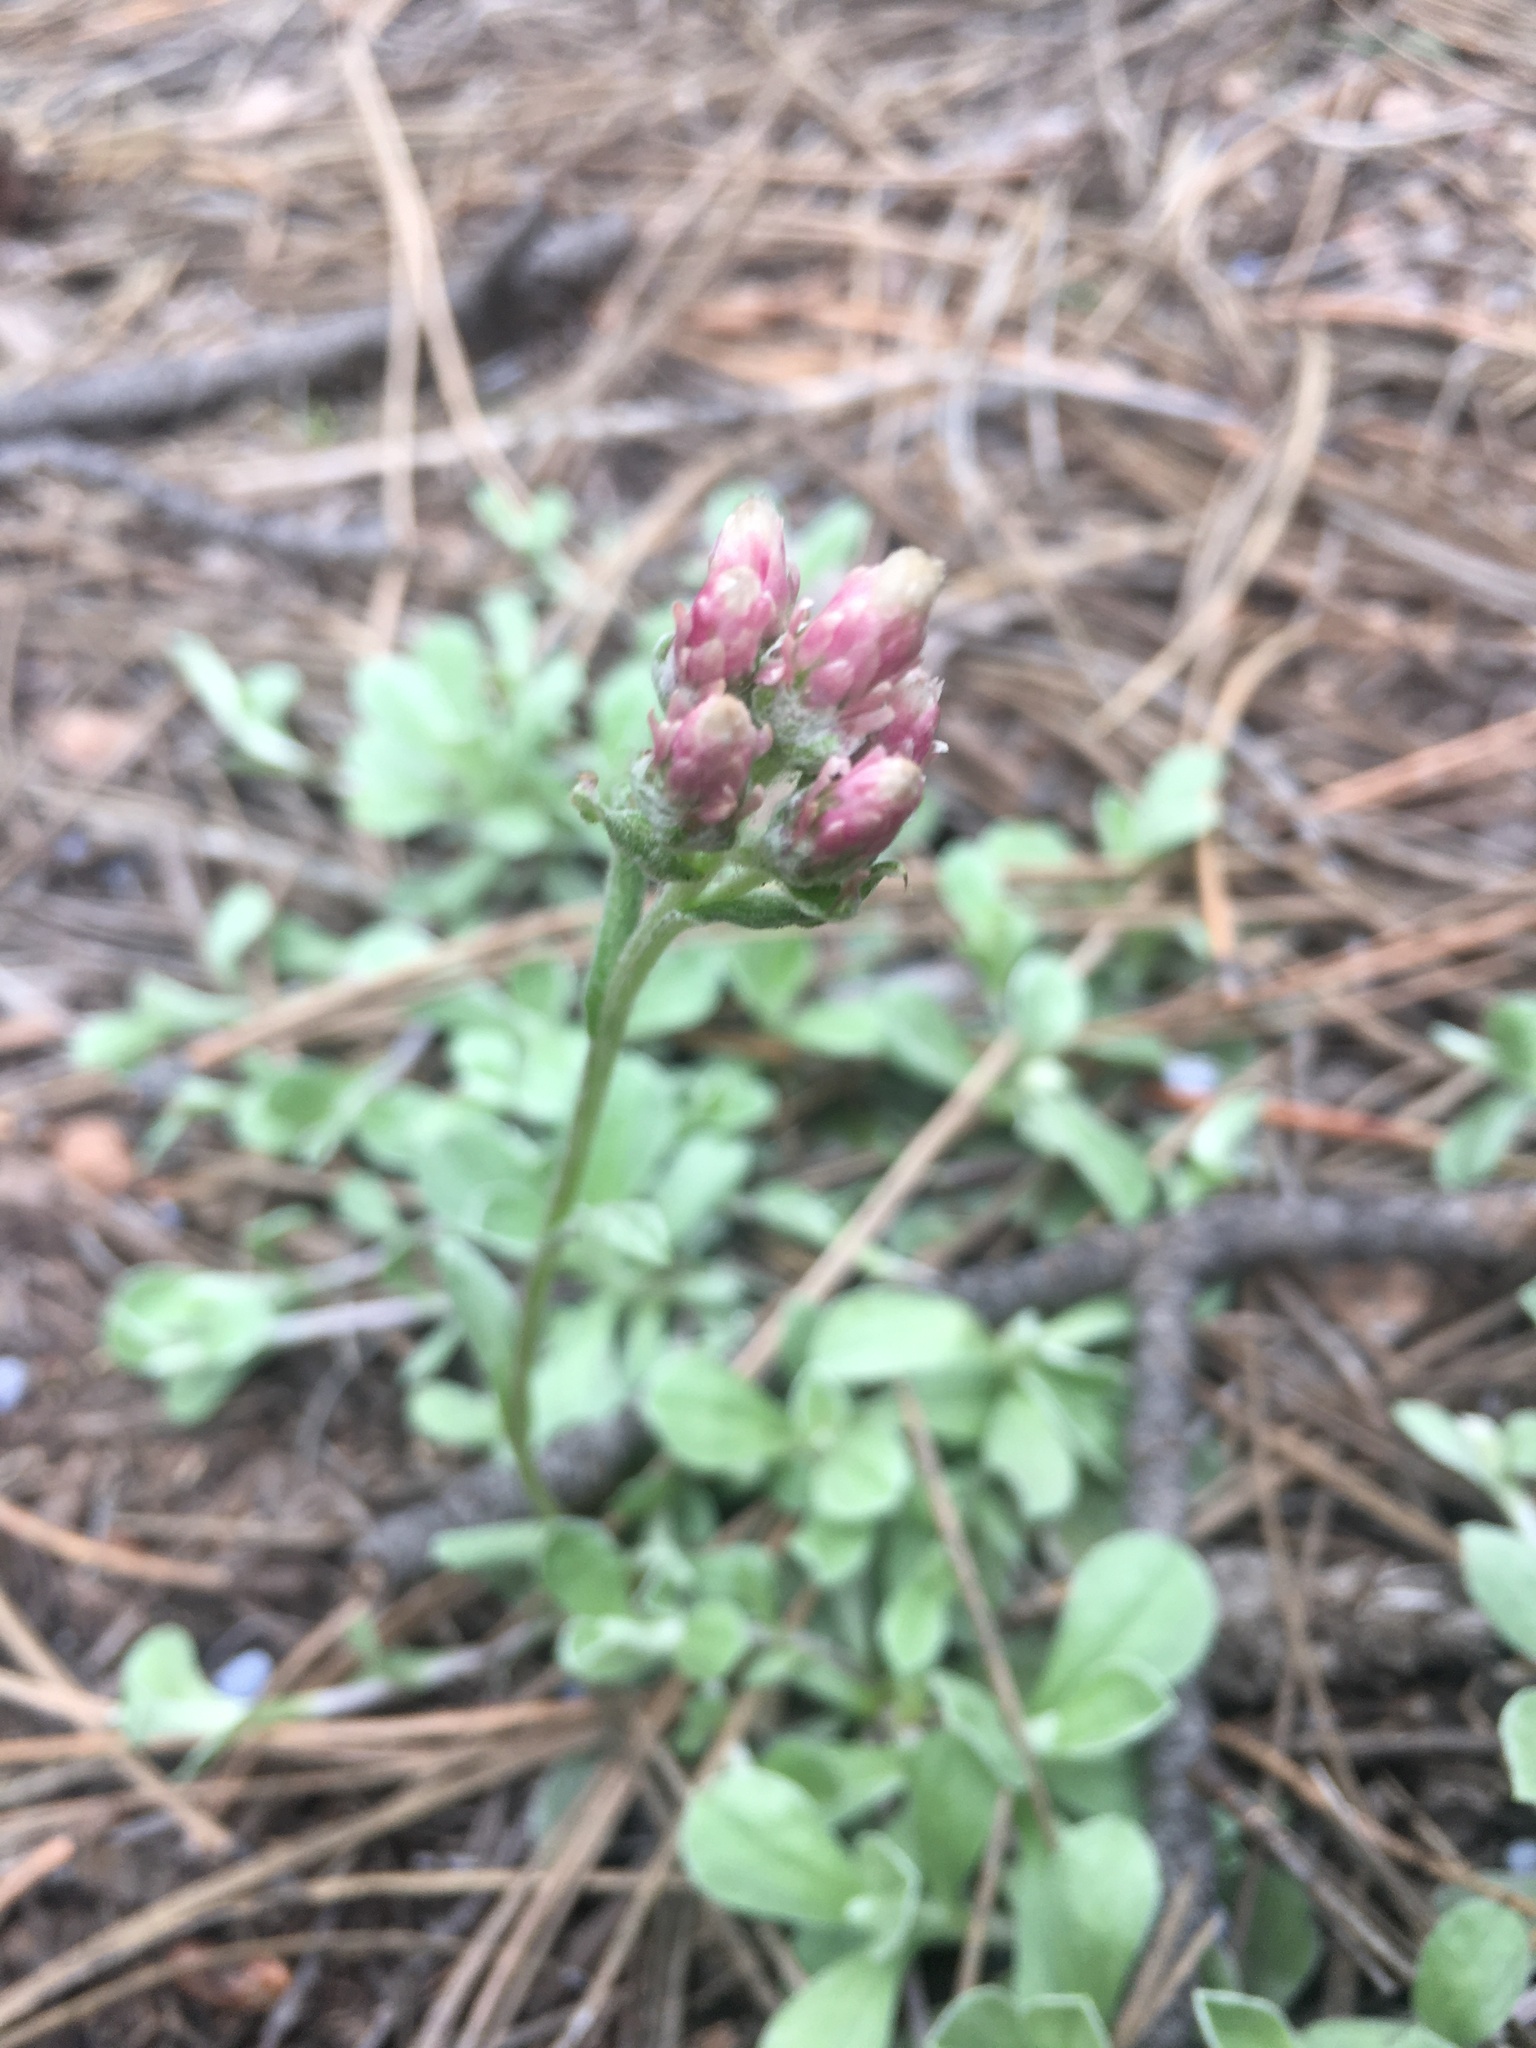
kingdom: Plantae
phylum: Tracheophyta
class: Magnoliopsida
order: Asterales
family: Asteraceae
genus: Antennaria
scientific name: Antennaria rosea
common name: Rosy pussytoes
